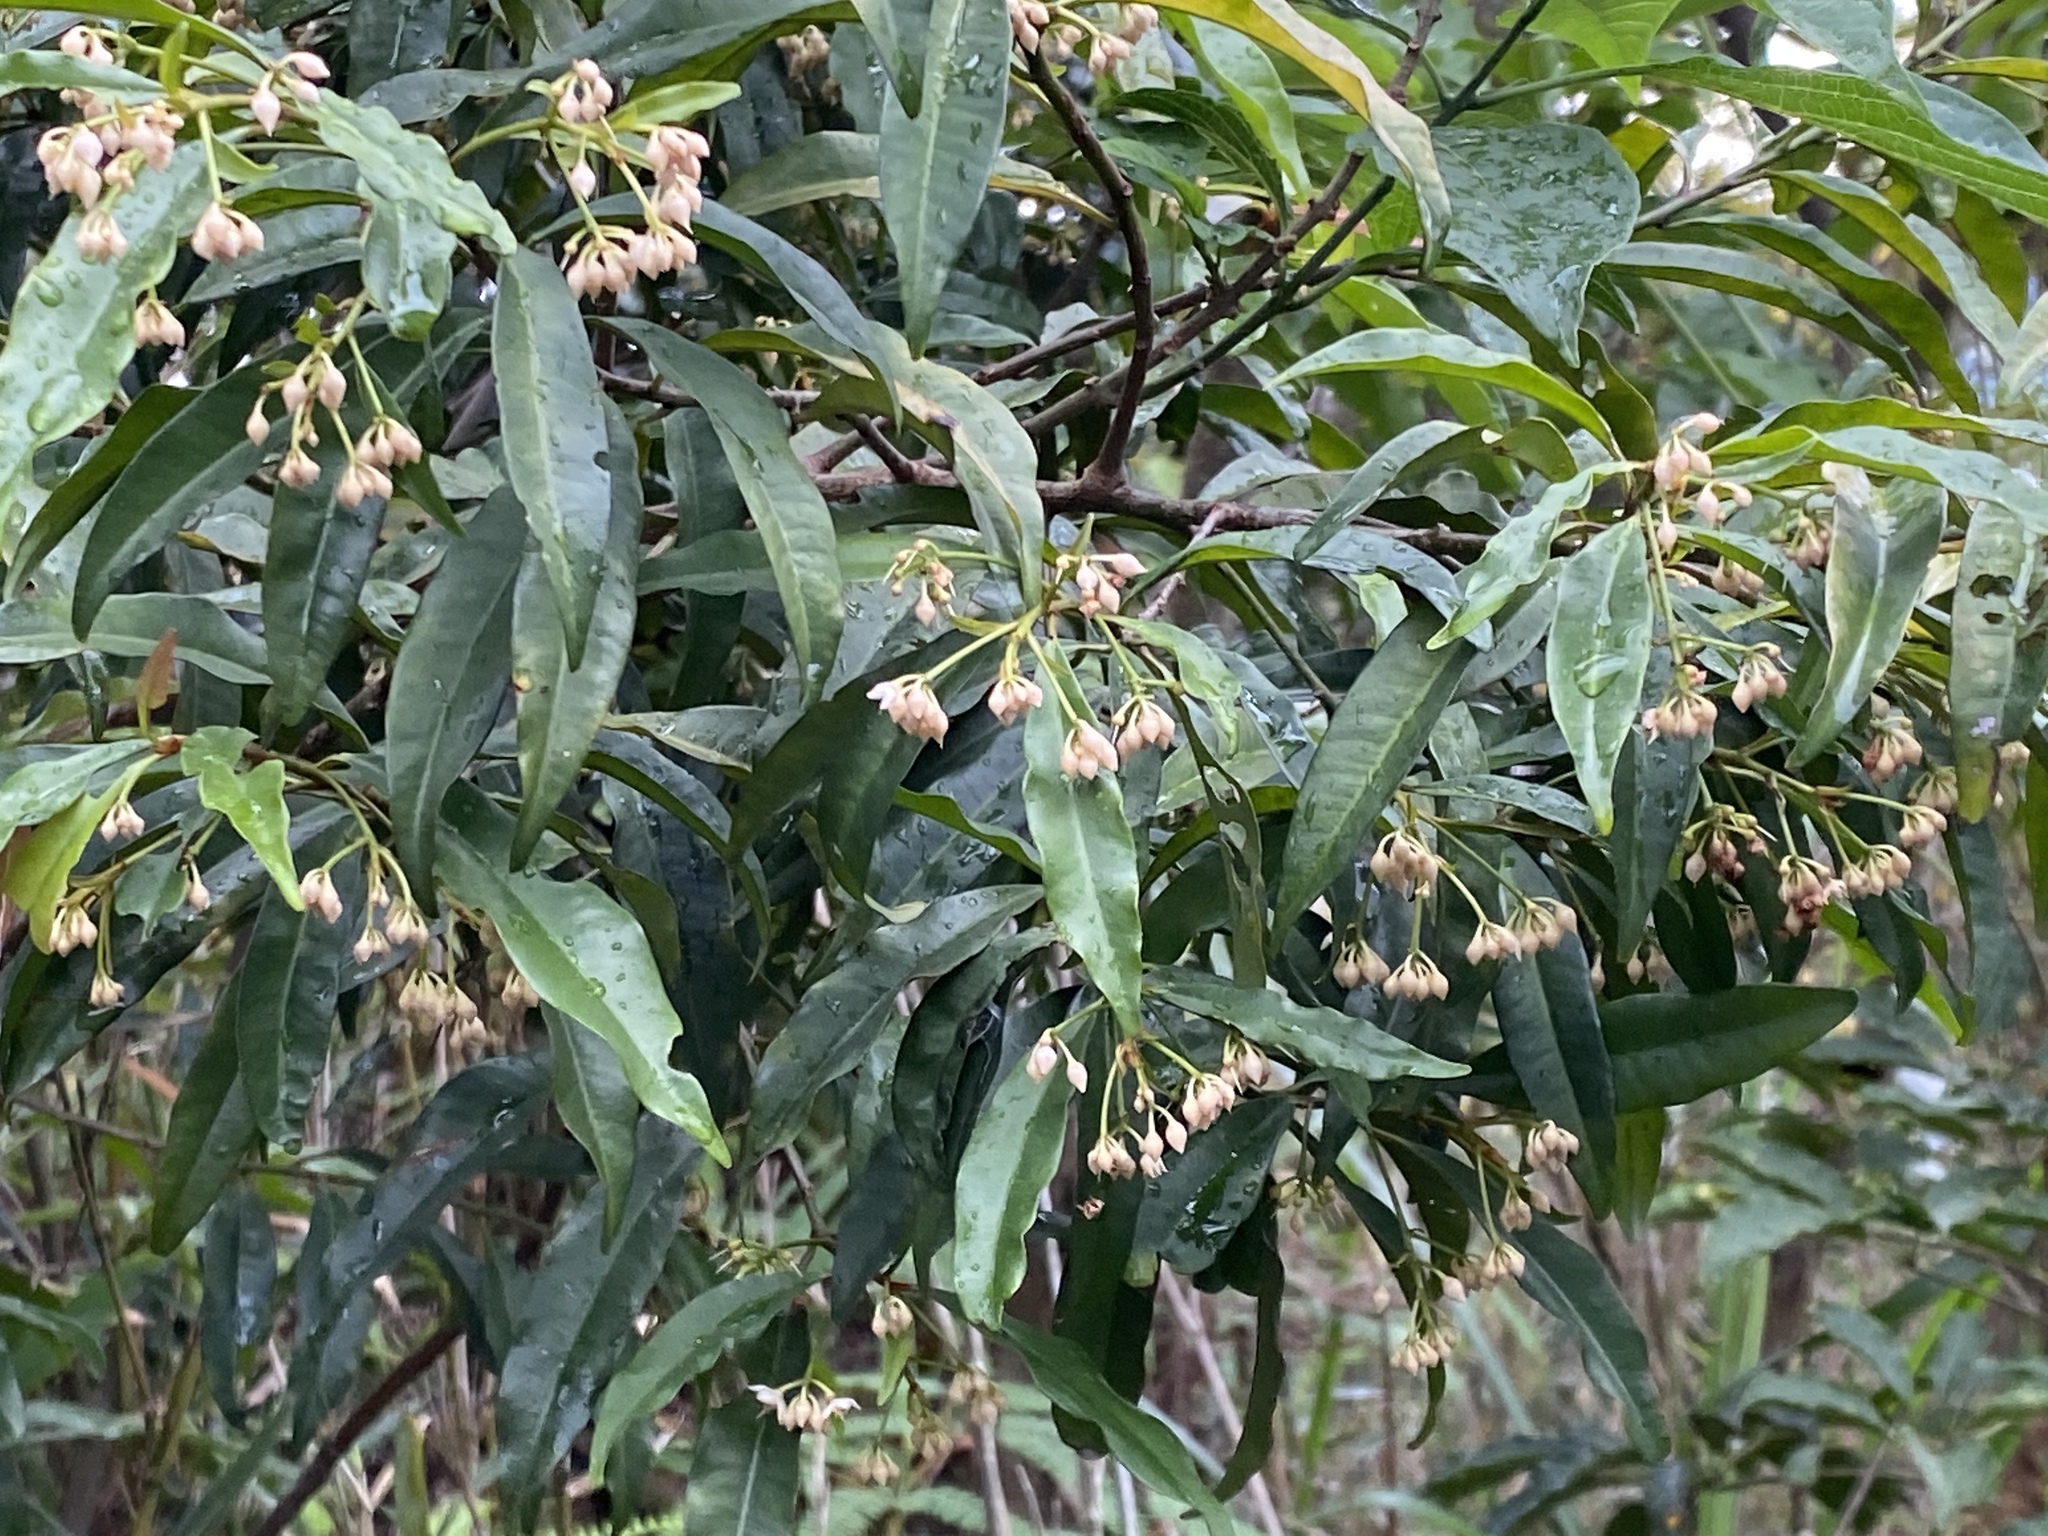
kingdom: Plantae
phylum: Tracheophyta
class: Magnoliopsida
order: Ericales
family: Primulaceae
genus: Ardisia
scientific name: Ardisia quinquegona
